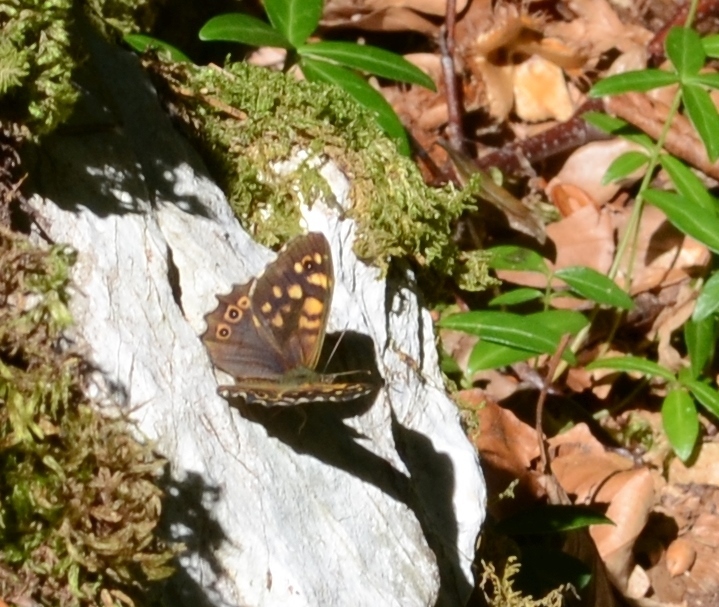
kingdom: Animalia
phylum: Arthropoda
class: Insecta
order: Lepidoptera
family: Nymphalidae
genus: Pararge
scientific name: Pararge aegeria
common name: Speckled wood
